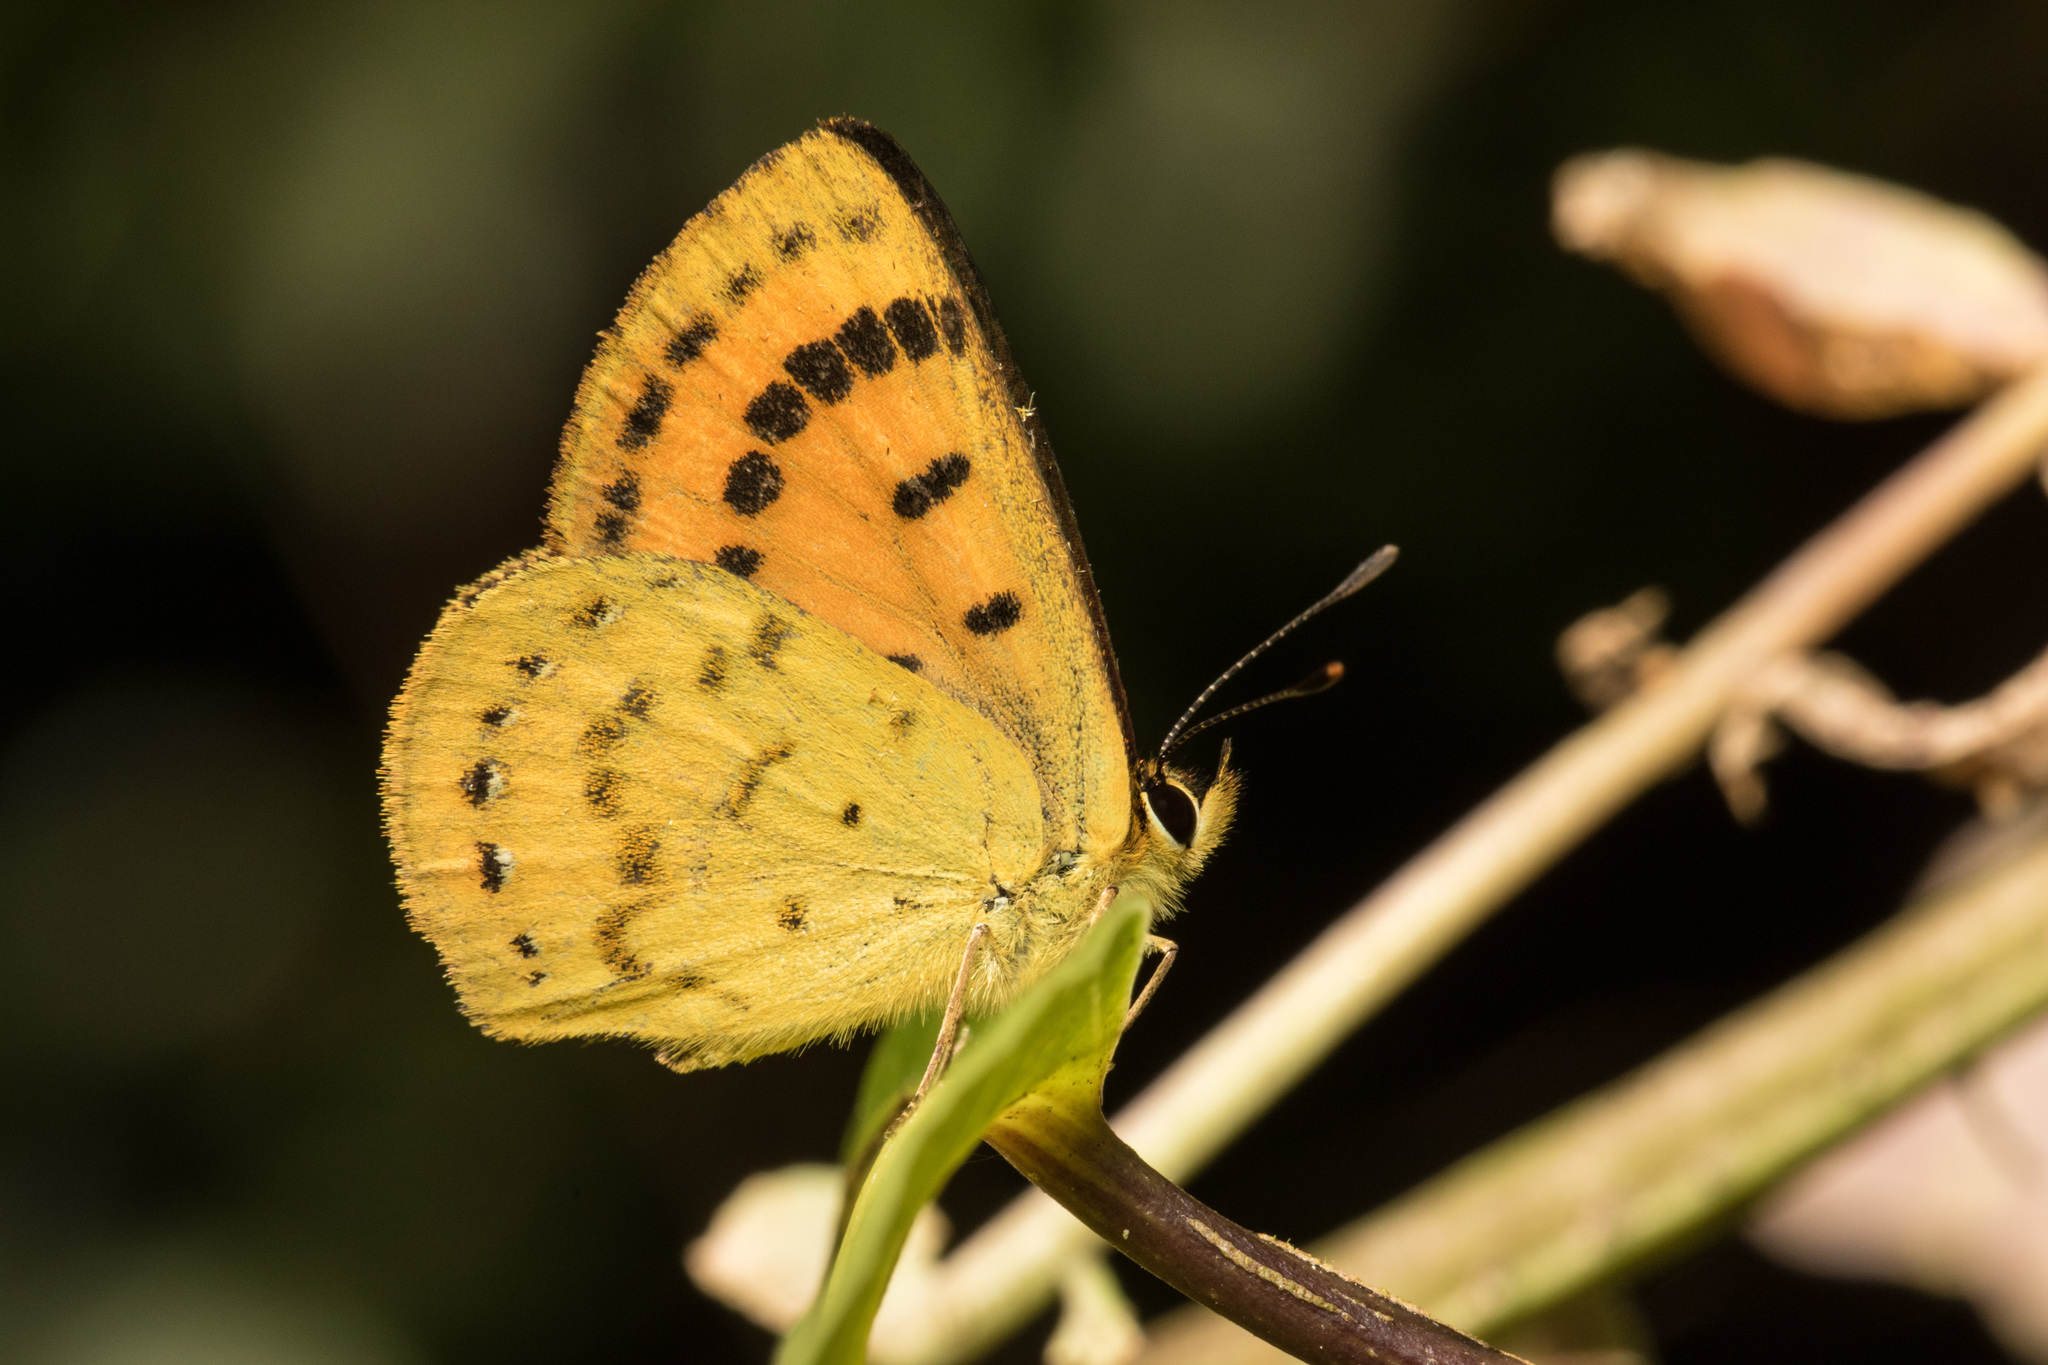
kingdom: Animalia
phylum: Arthropoda
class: Insecta
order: Lepidoptera
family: Lycaenidae
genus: Lycaena
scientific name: Lycaena salustius
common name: North island coastal copper
